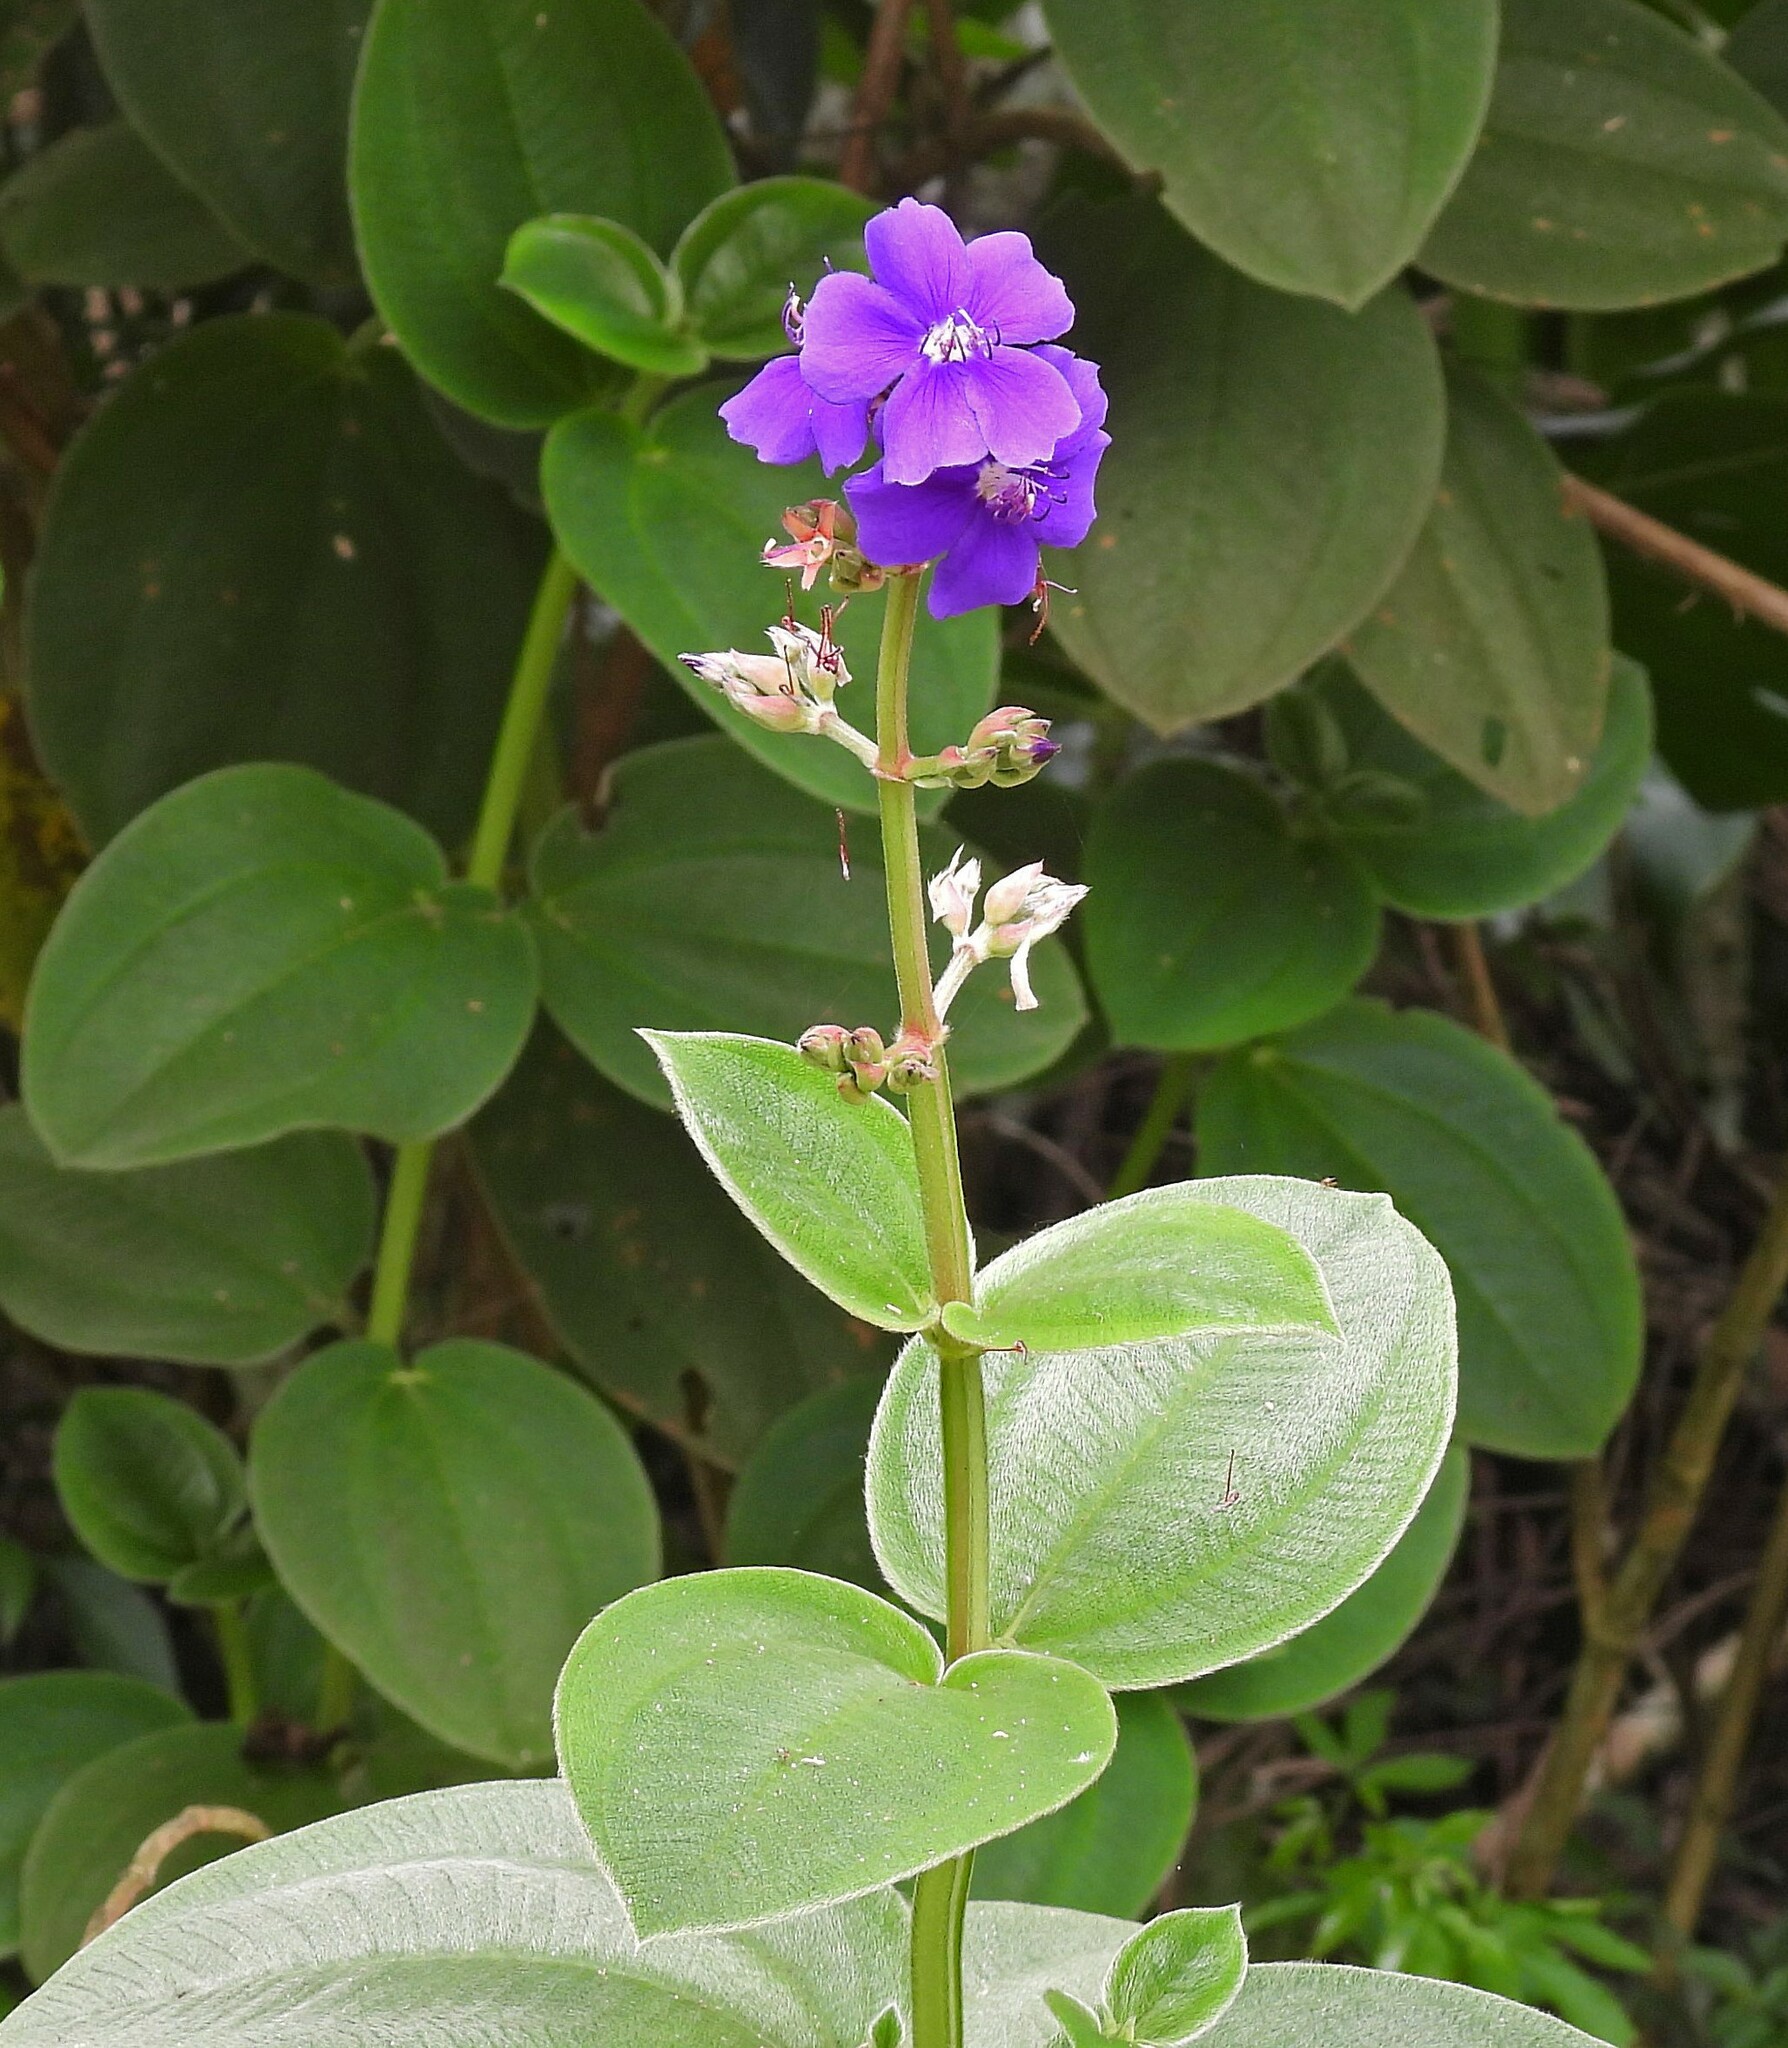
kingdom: Plantae
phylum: Tracheophyta
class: Magnoliopsida
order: Myrtales
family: Melastomataceae
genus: Pleroma
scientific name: Pleroma heteromallum
